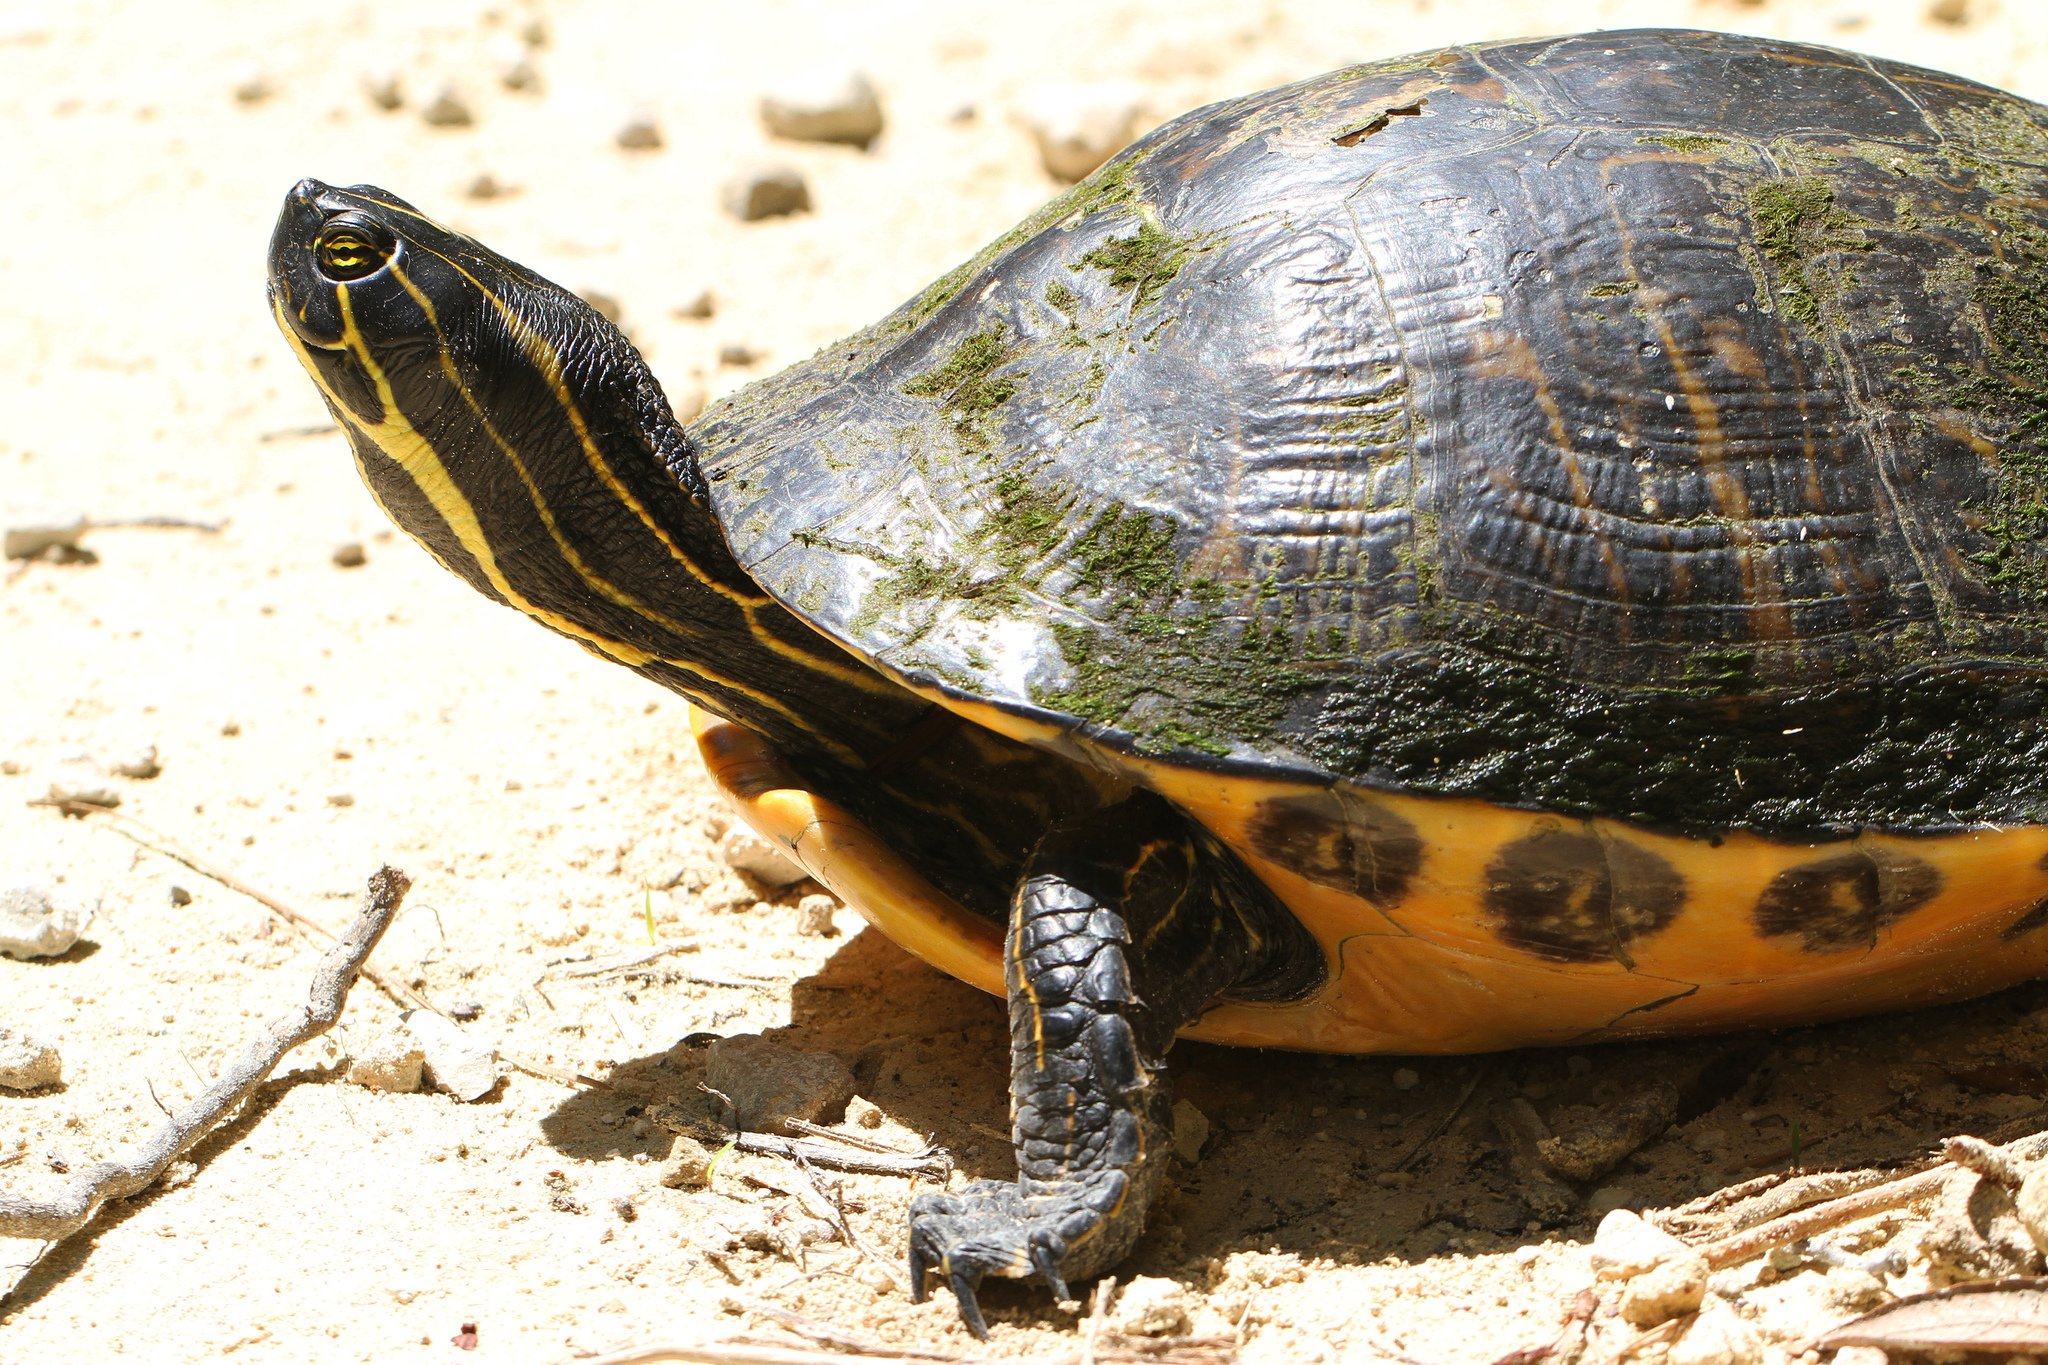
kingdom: Animalia
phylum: Chordata
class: Testudines
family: Emydidae
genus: Pseudemys
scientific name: Pseudemys concinna
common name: Eastern river cooter
